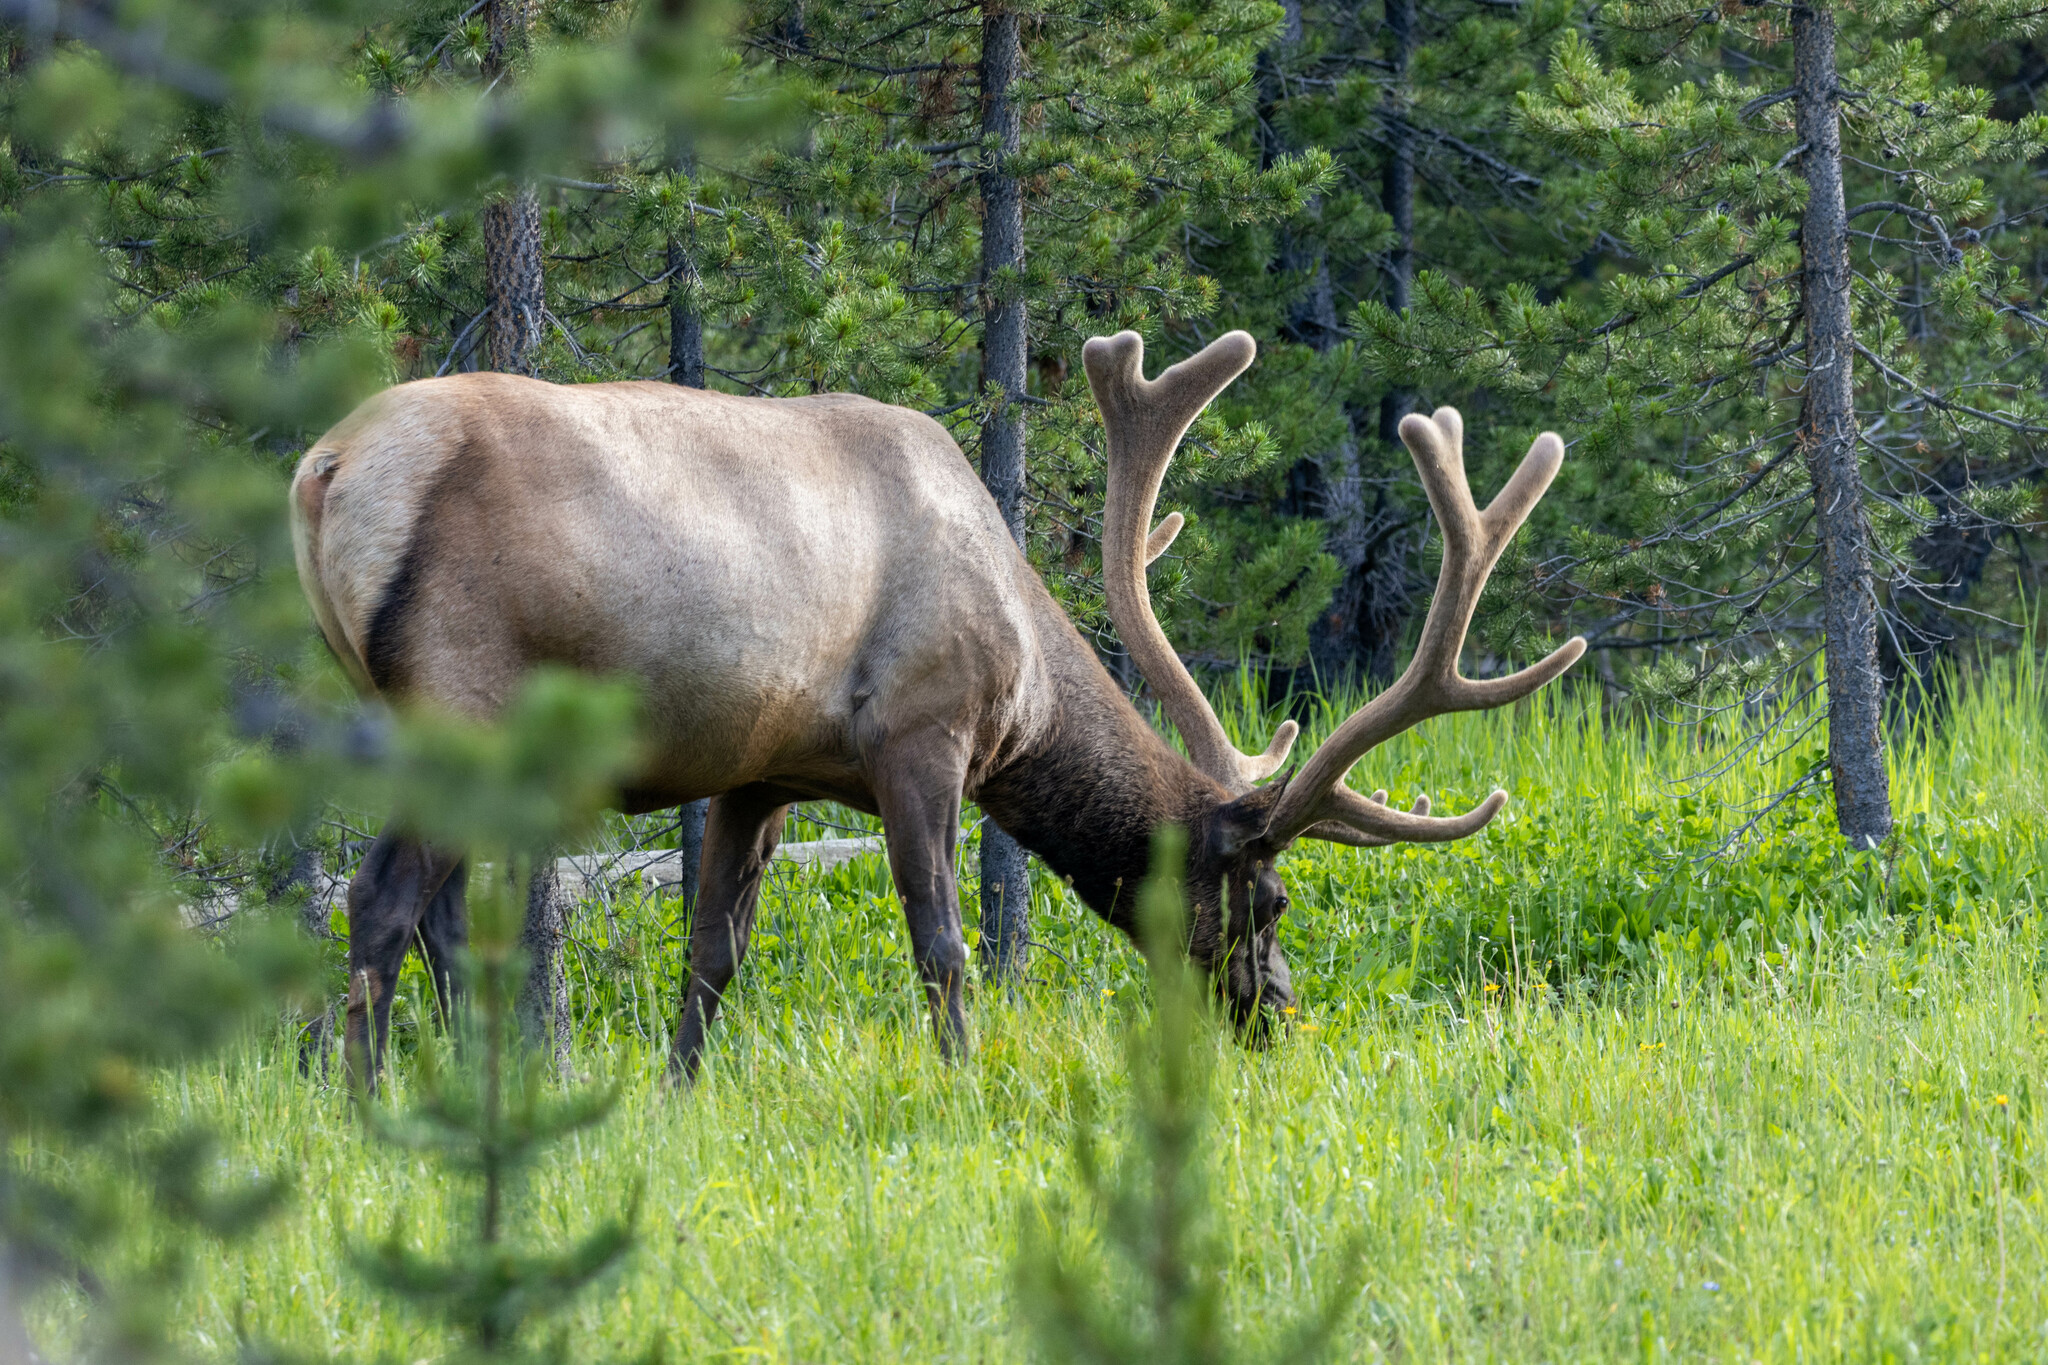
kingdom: Animalia
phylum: Chordata
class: Mammalia
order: Artiodactyla
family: Cervidae
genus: Cervus
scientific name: Cervus elaphus
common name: Red deer
